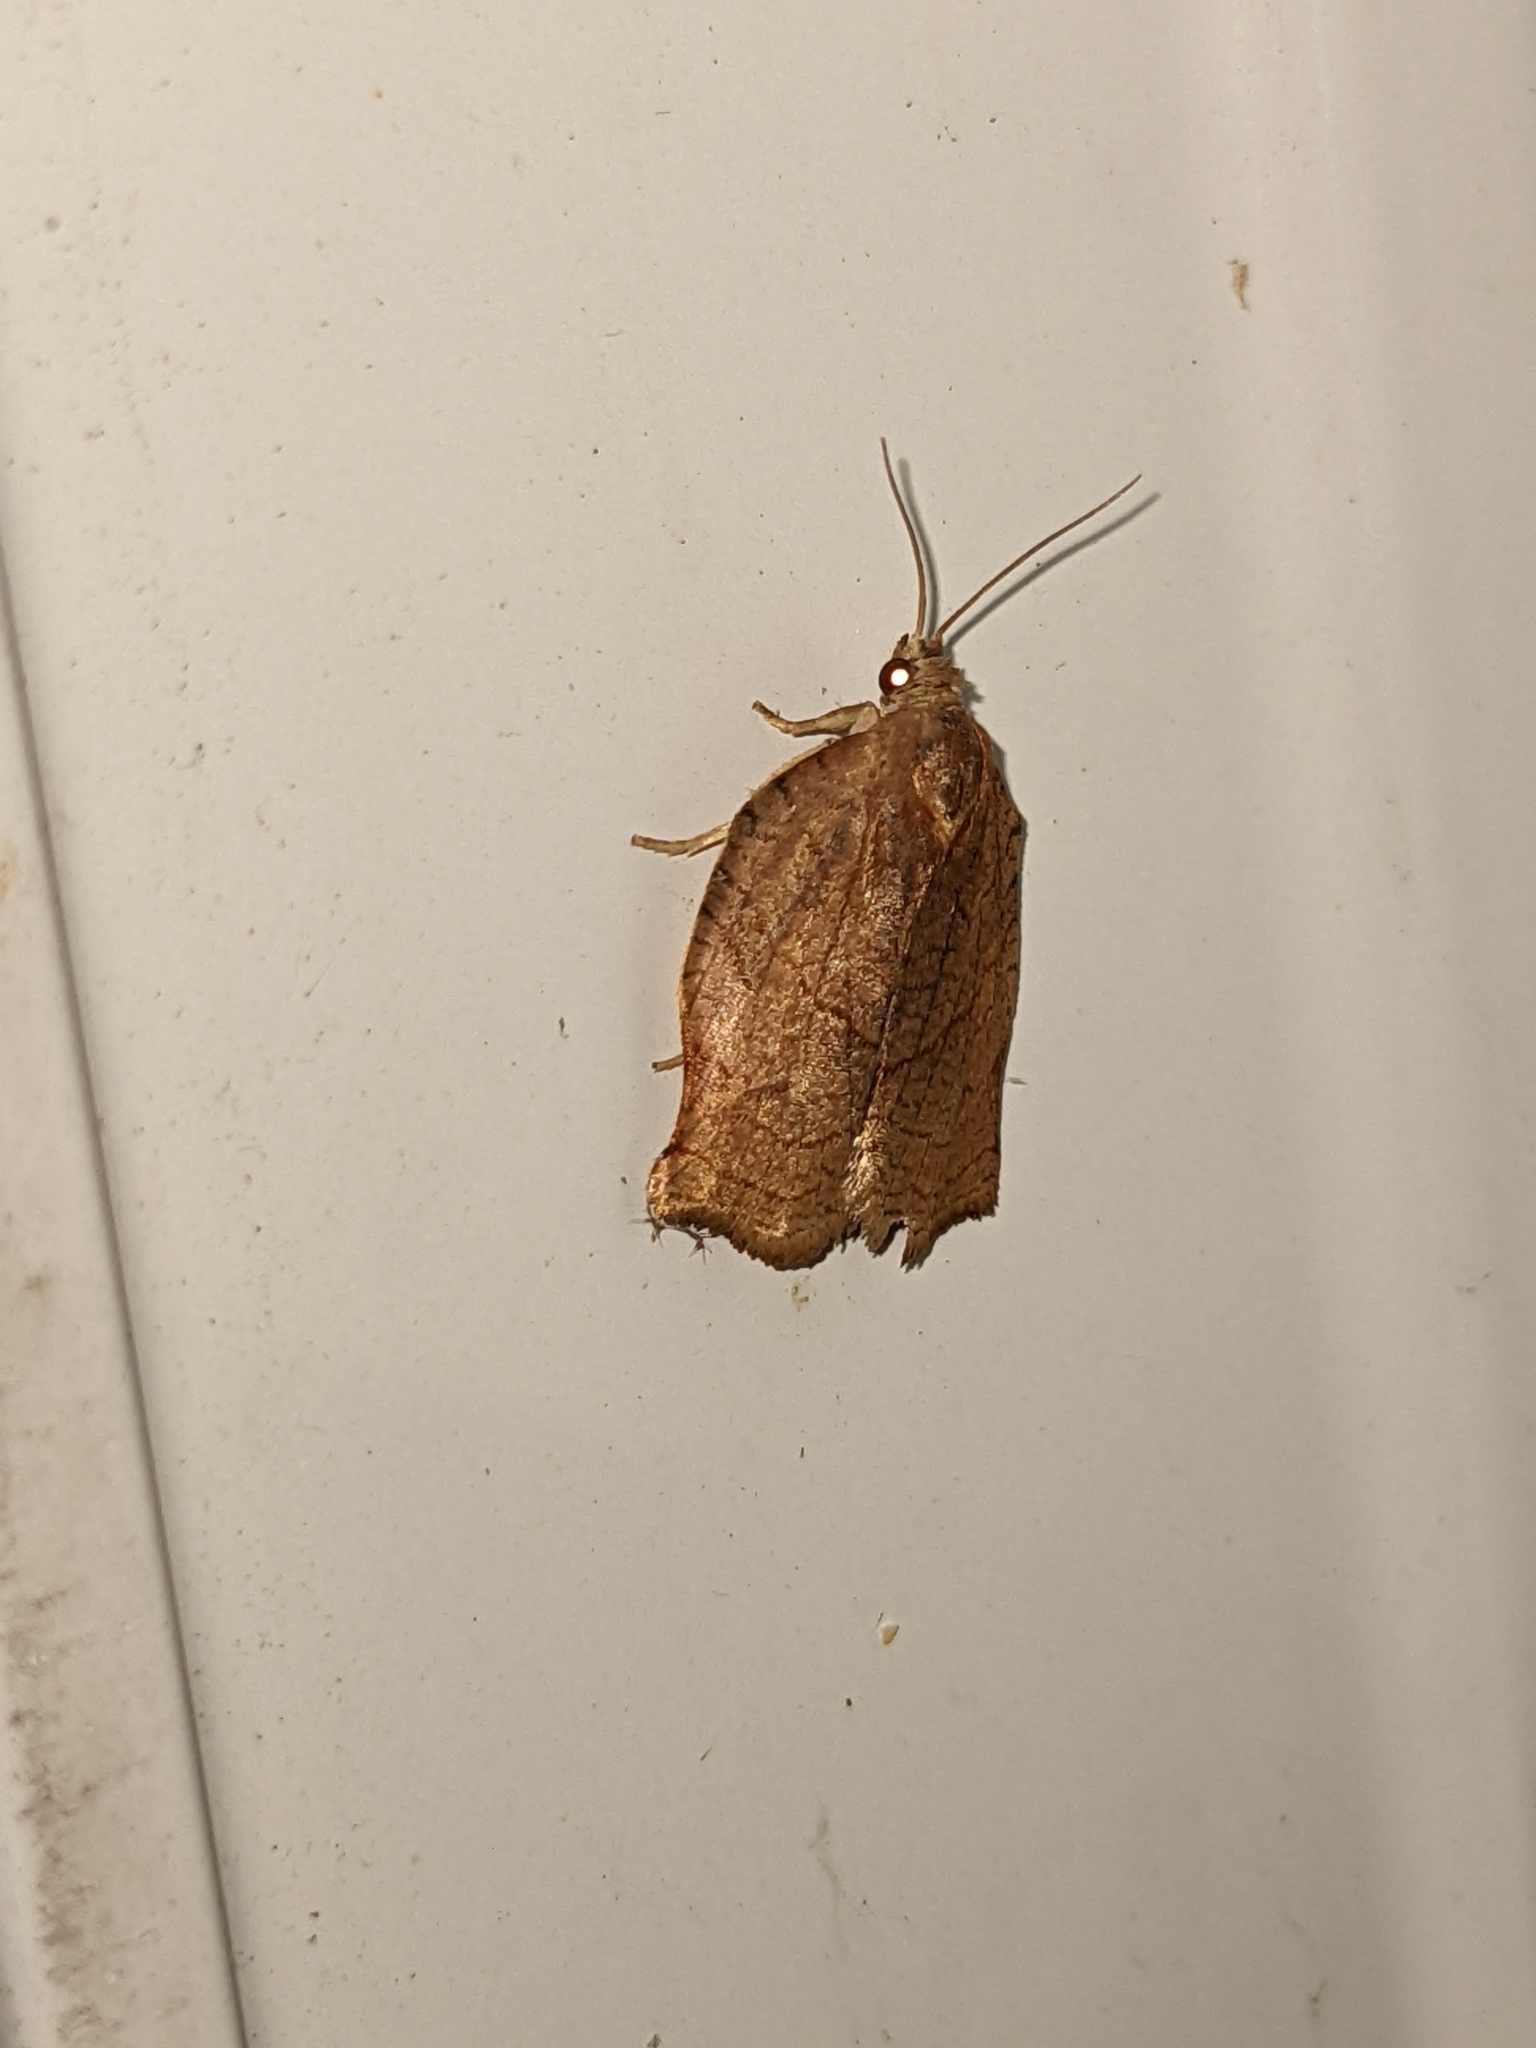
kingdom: Animalia
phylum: Arthropoda
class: Insecta
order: Lepidoptera
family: Tortricidae
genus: Choristoneura
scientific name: Choristoneura rosaceana
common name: Oblique-banded leafroller moth
